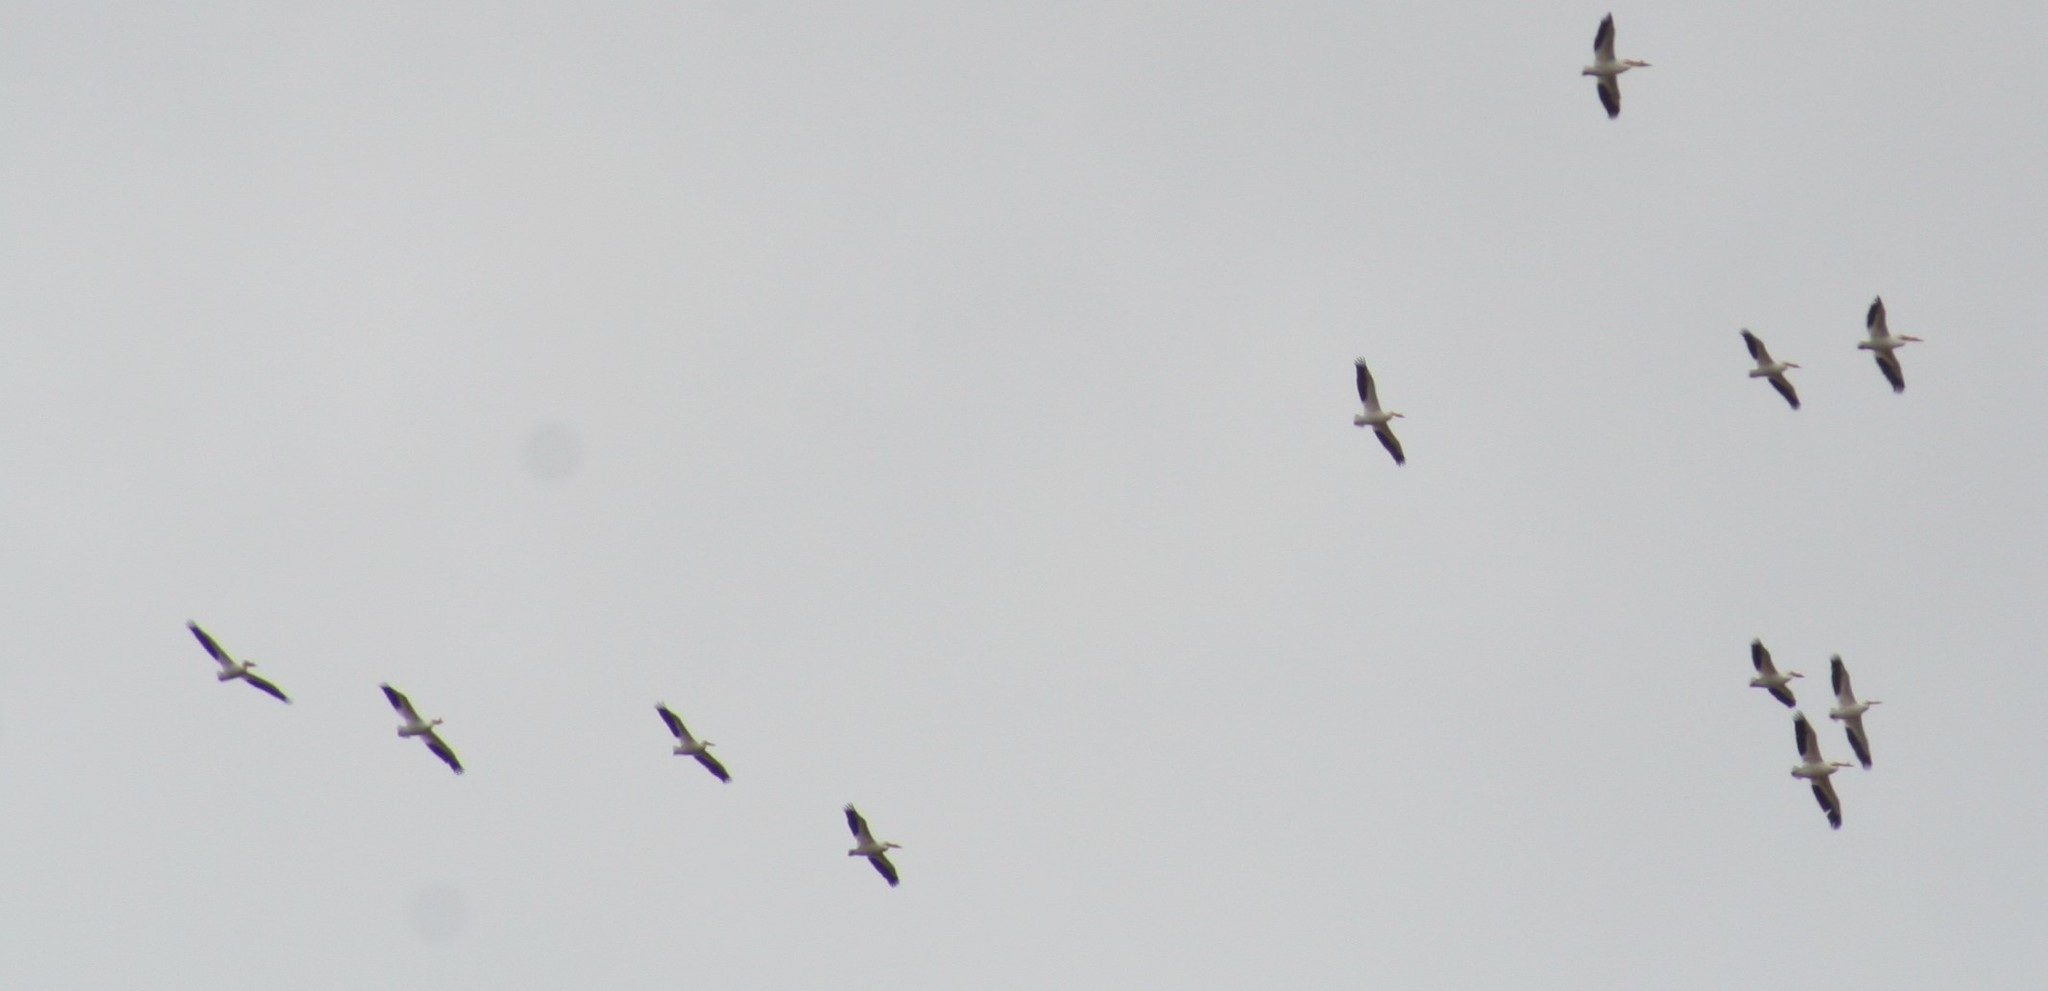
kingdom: Animalia
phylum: Chordata
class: Aves
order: Pelecaniformes
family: Pelecanidae
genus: Pelecanus
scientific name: Pelecanus erythrorhynchos
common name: American white pelican
